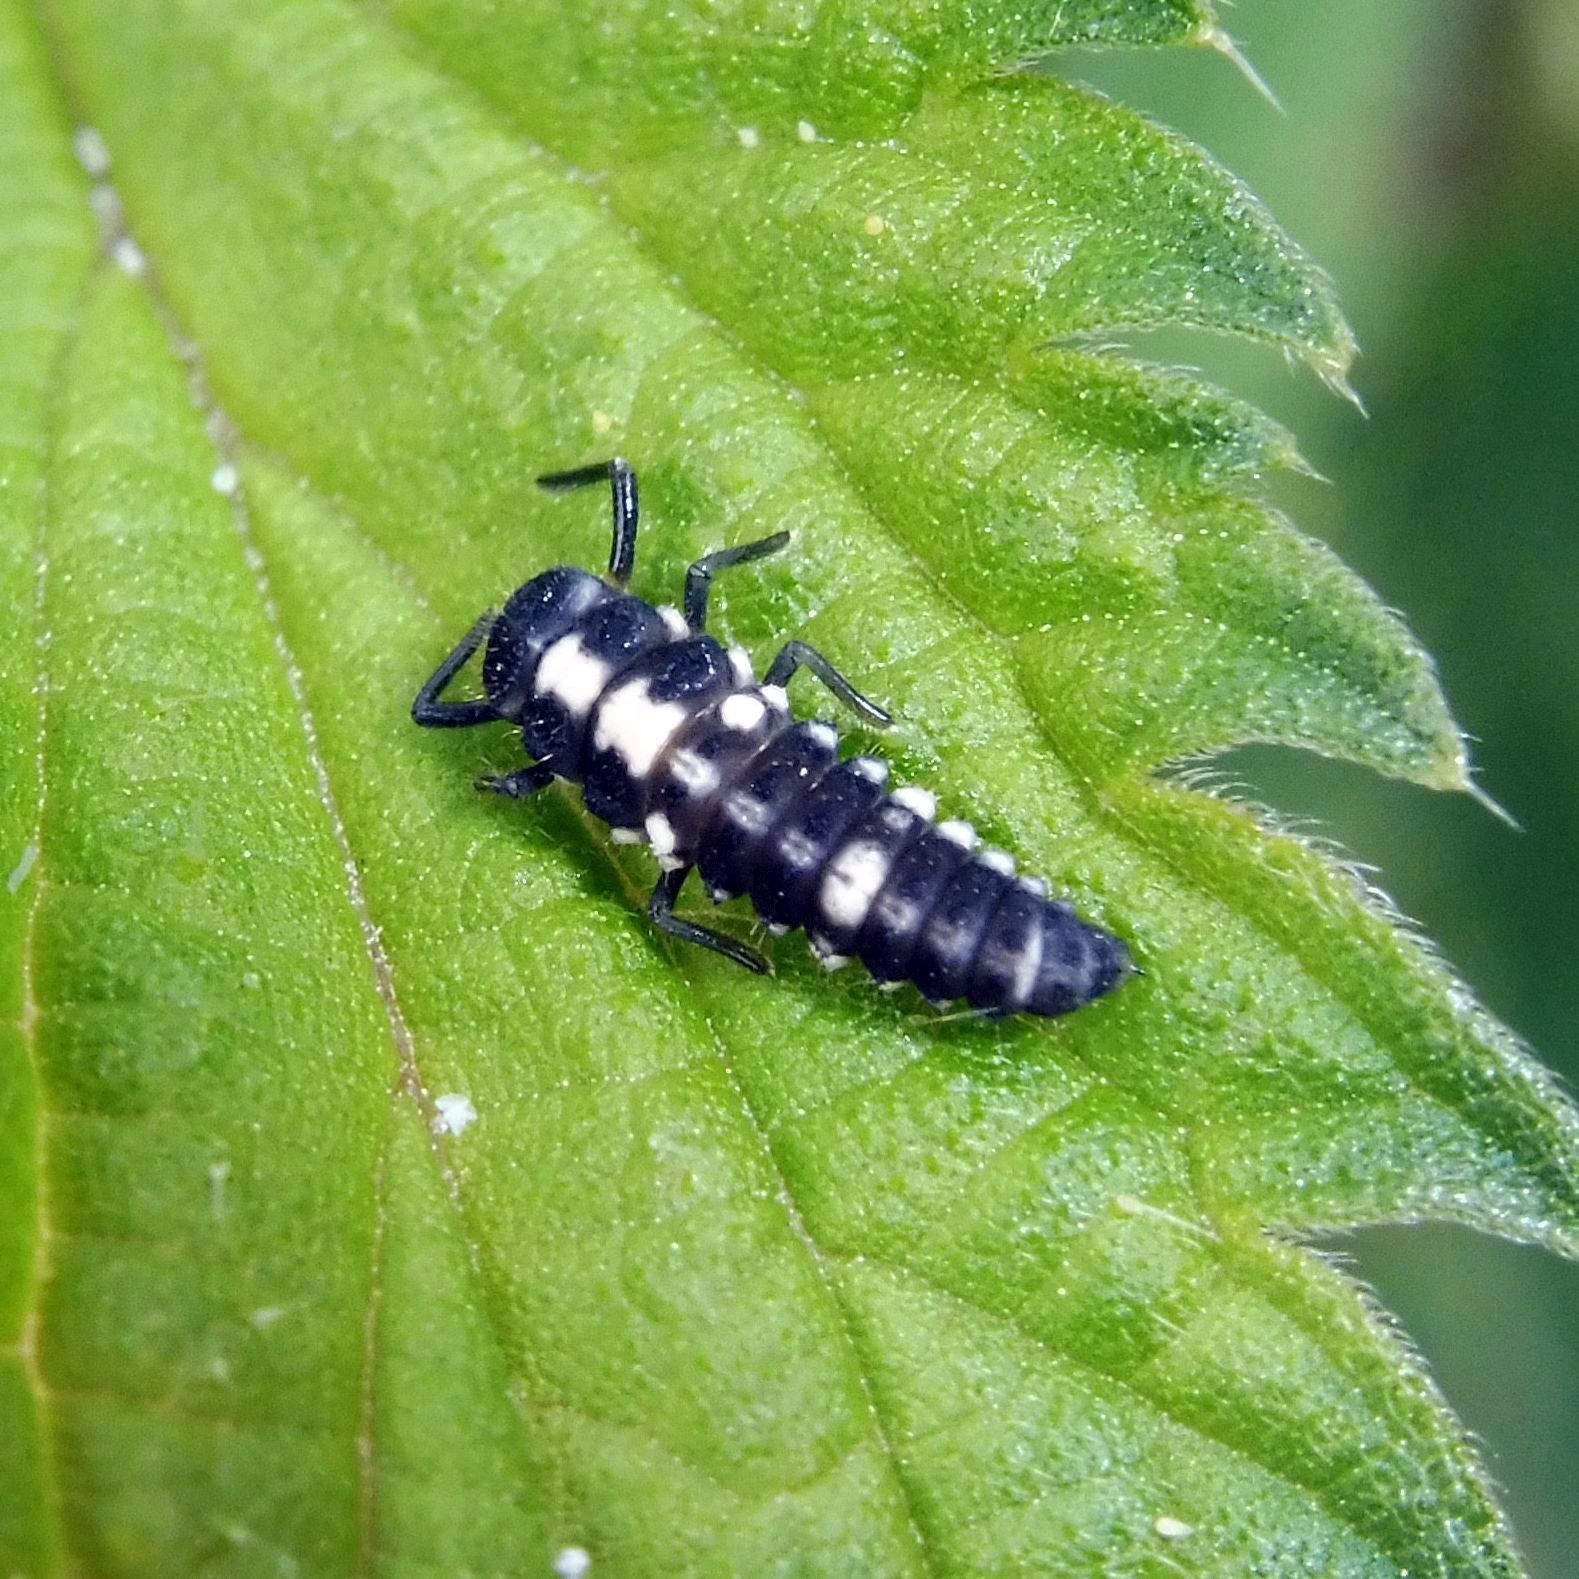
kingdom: Animalia
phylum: Arthropoda
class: Insecta
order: Coleoptera
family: Coccinellidae
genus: Propylaea
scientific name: Propylaea quatuordecimpunctata
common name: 14-spotted ladybird beetle
